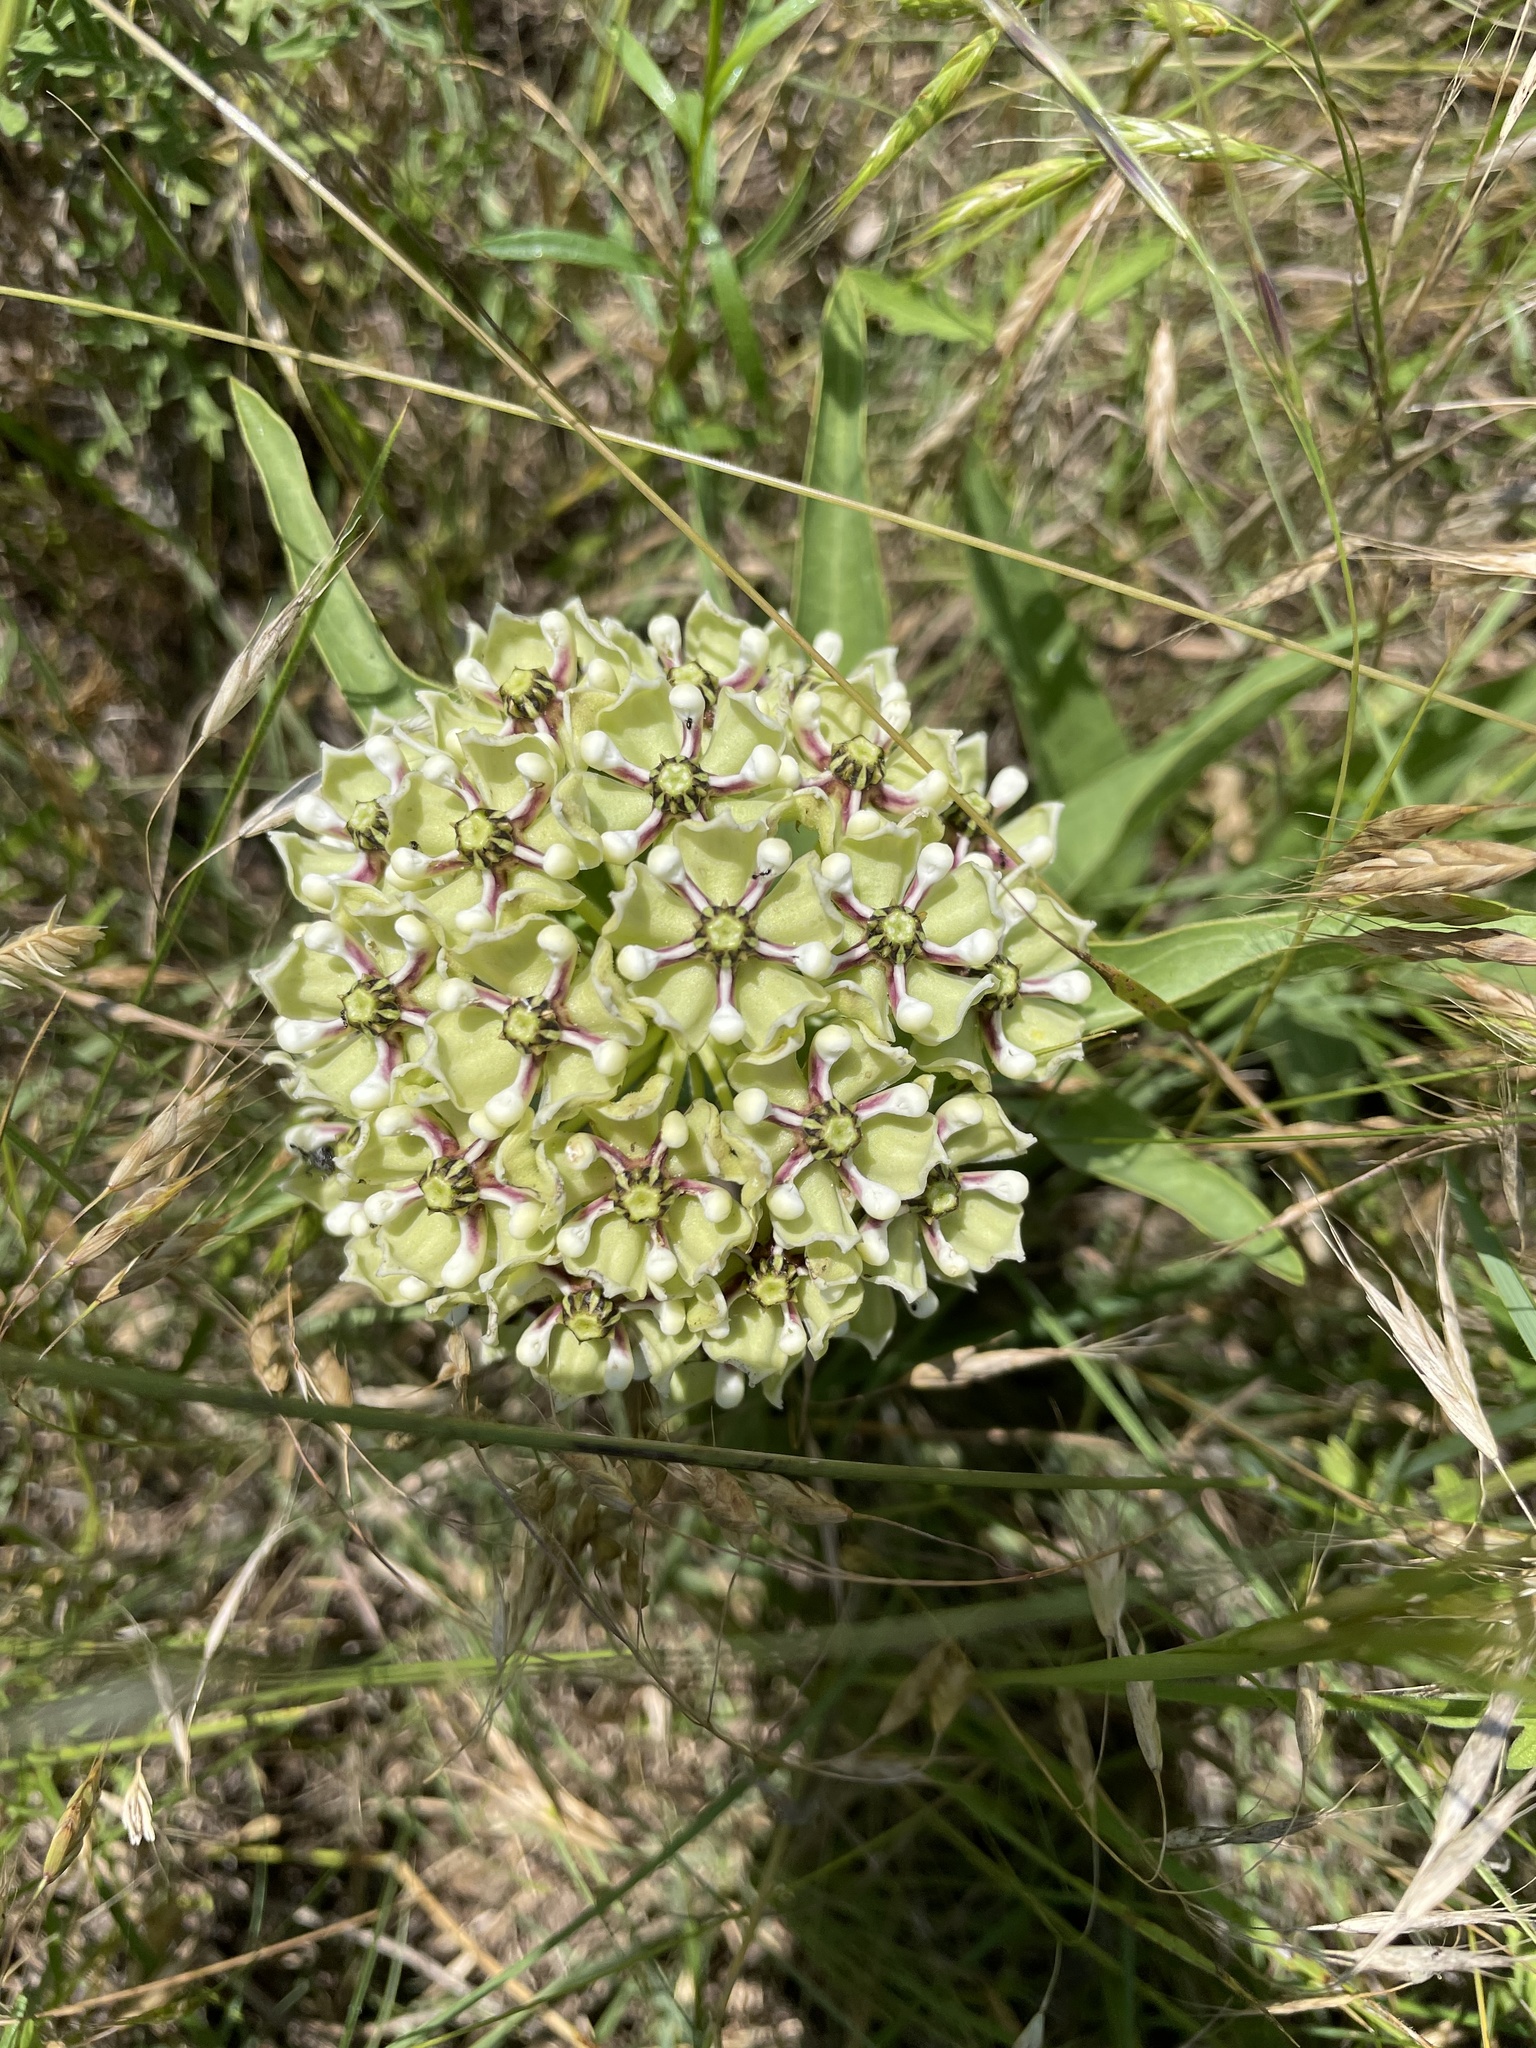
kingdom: Plantae
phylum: Tracheophyta
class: Magnoliopsida
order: Gentianales
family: Apocynaceae
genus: Asclepias
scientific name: Asclepias asperula
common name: Antelope horns
